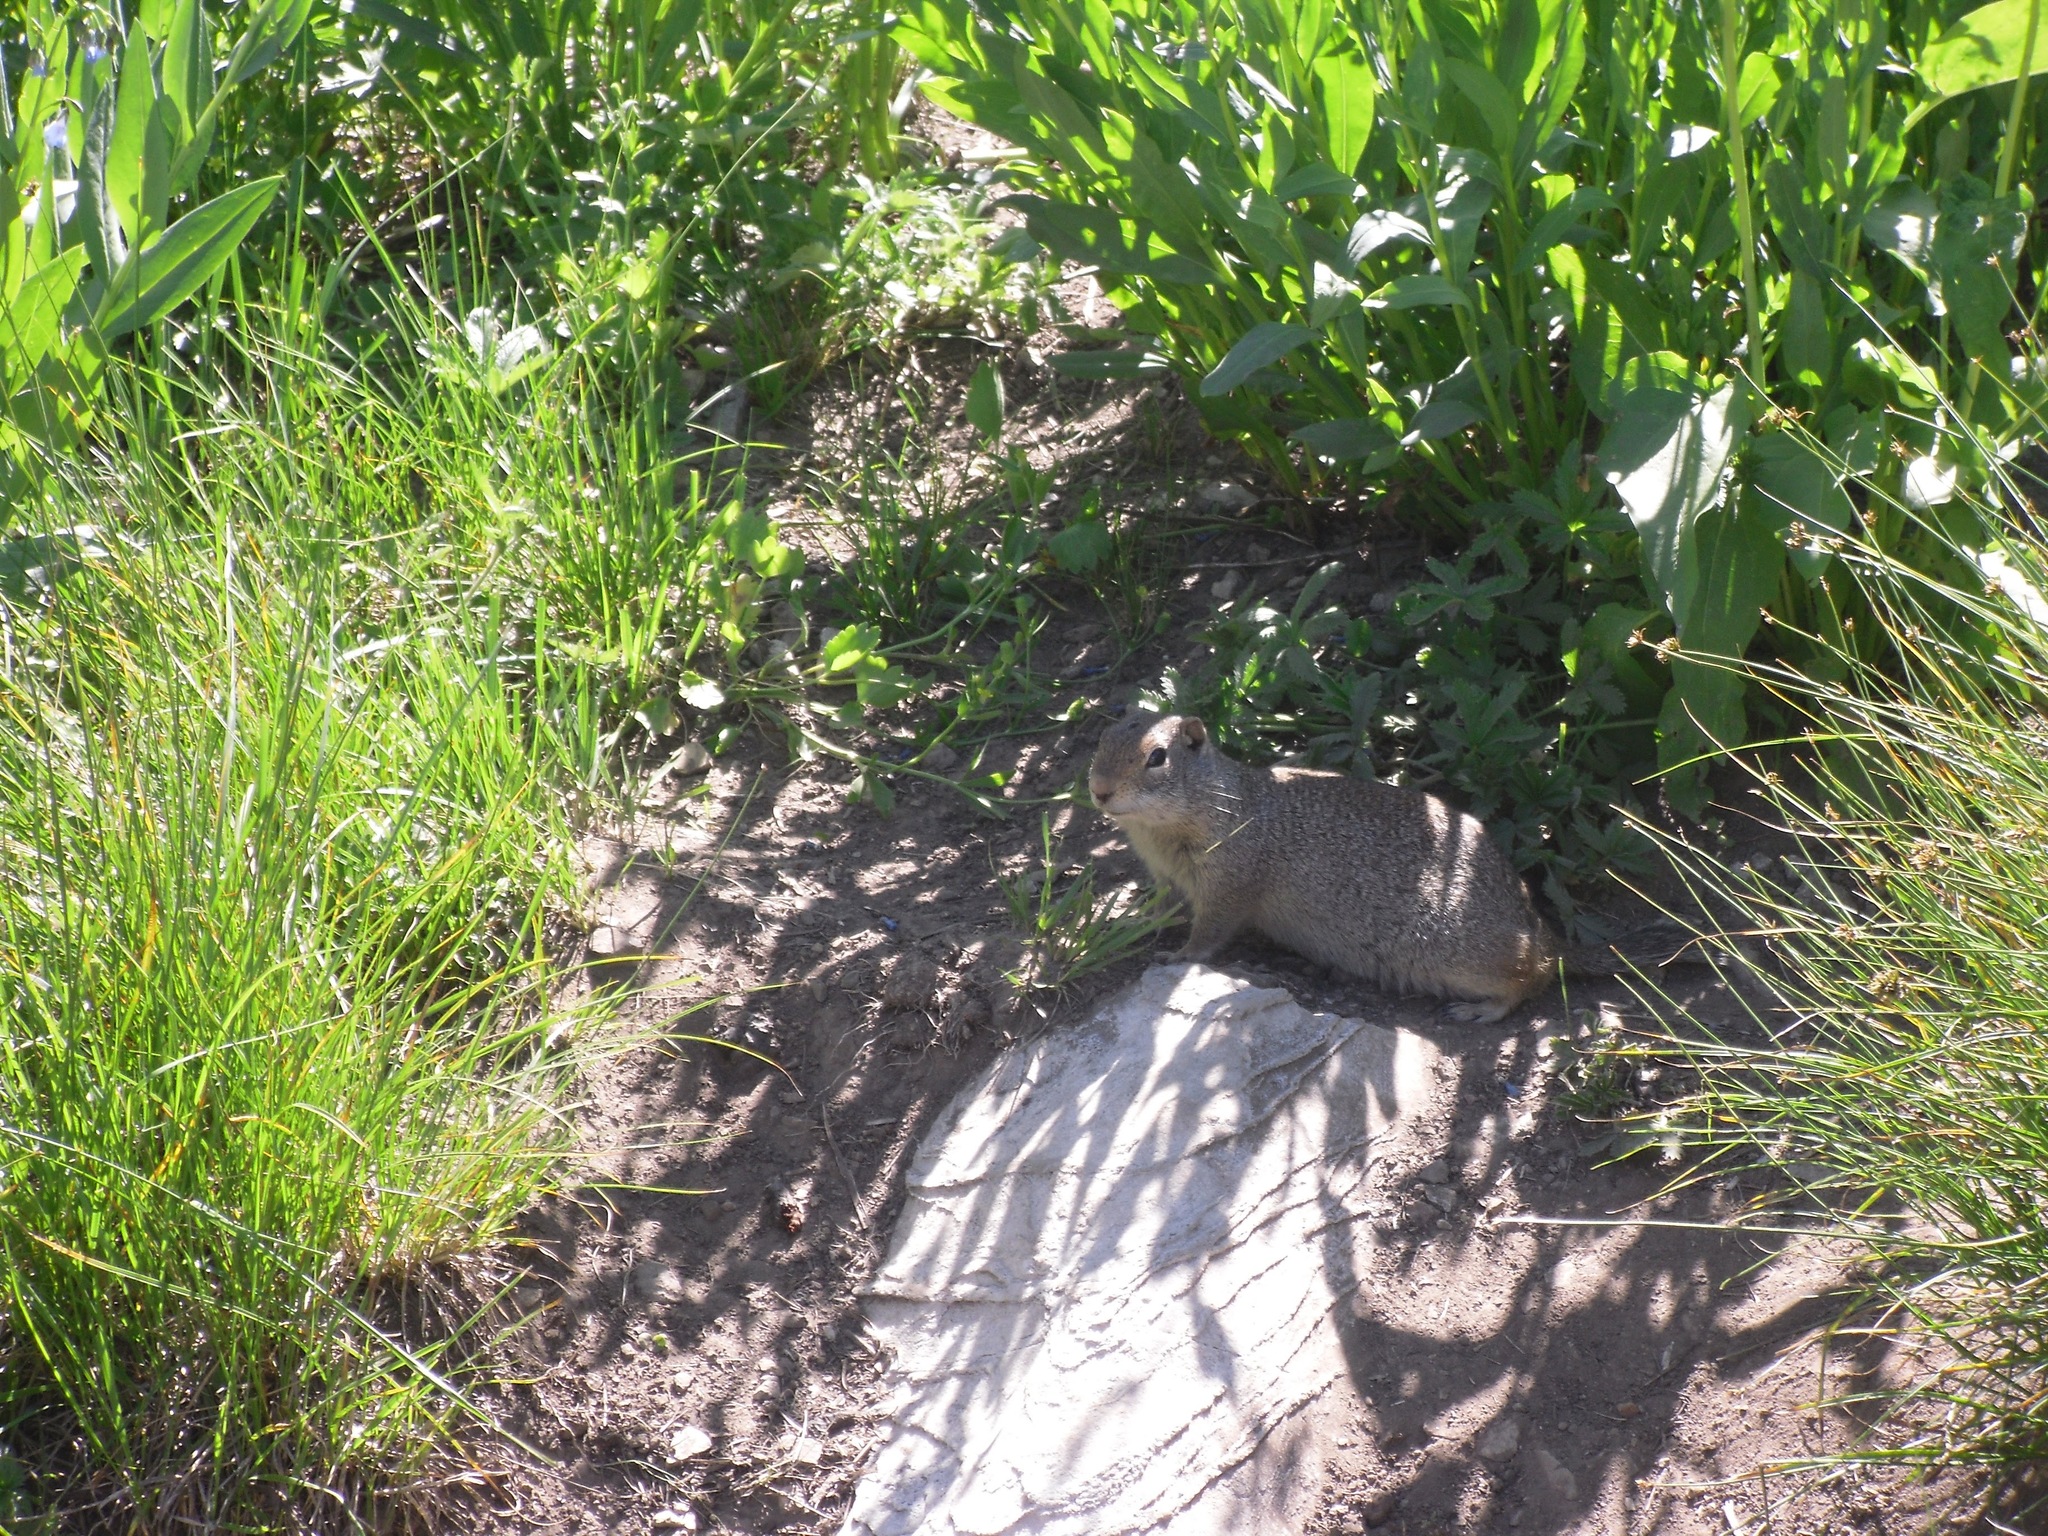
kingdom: Animalia
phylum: Chordata
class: Mammalia
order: Rodentia
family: Sciuridae
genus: Urocitellus
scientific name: Urocitellus armatus
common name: Uinta ground squirrel
